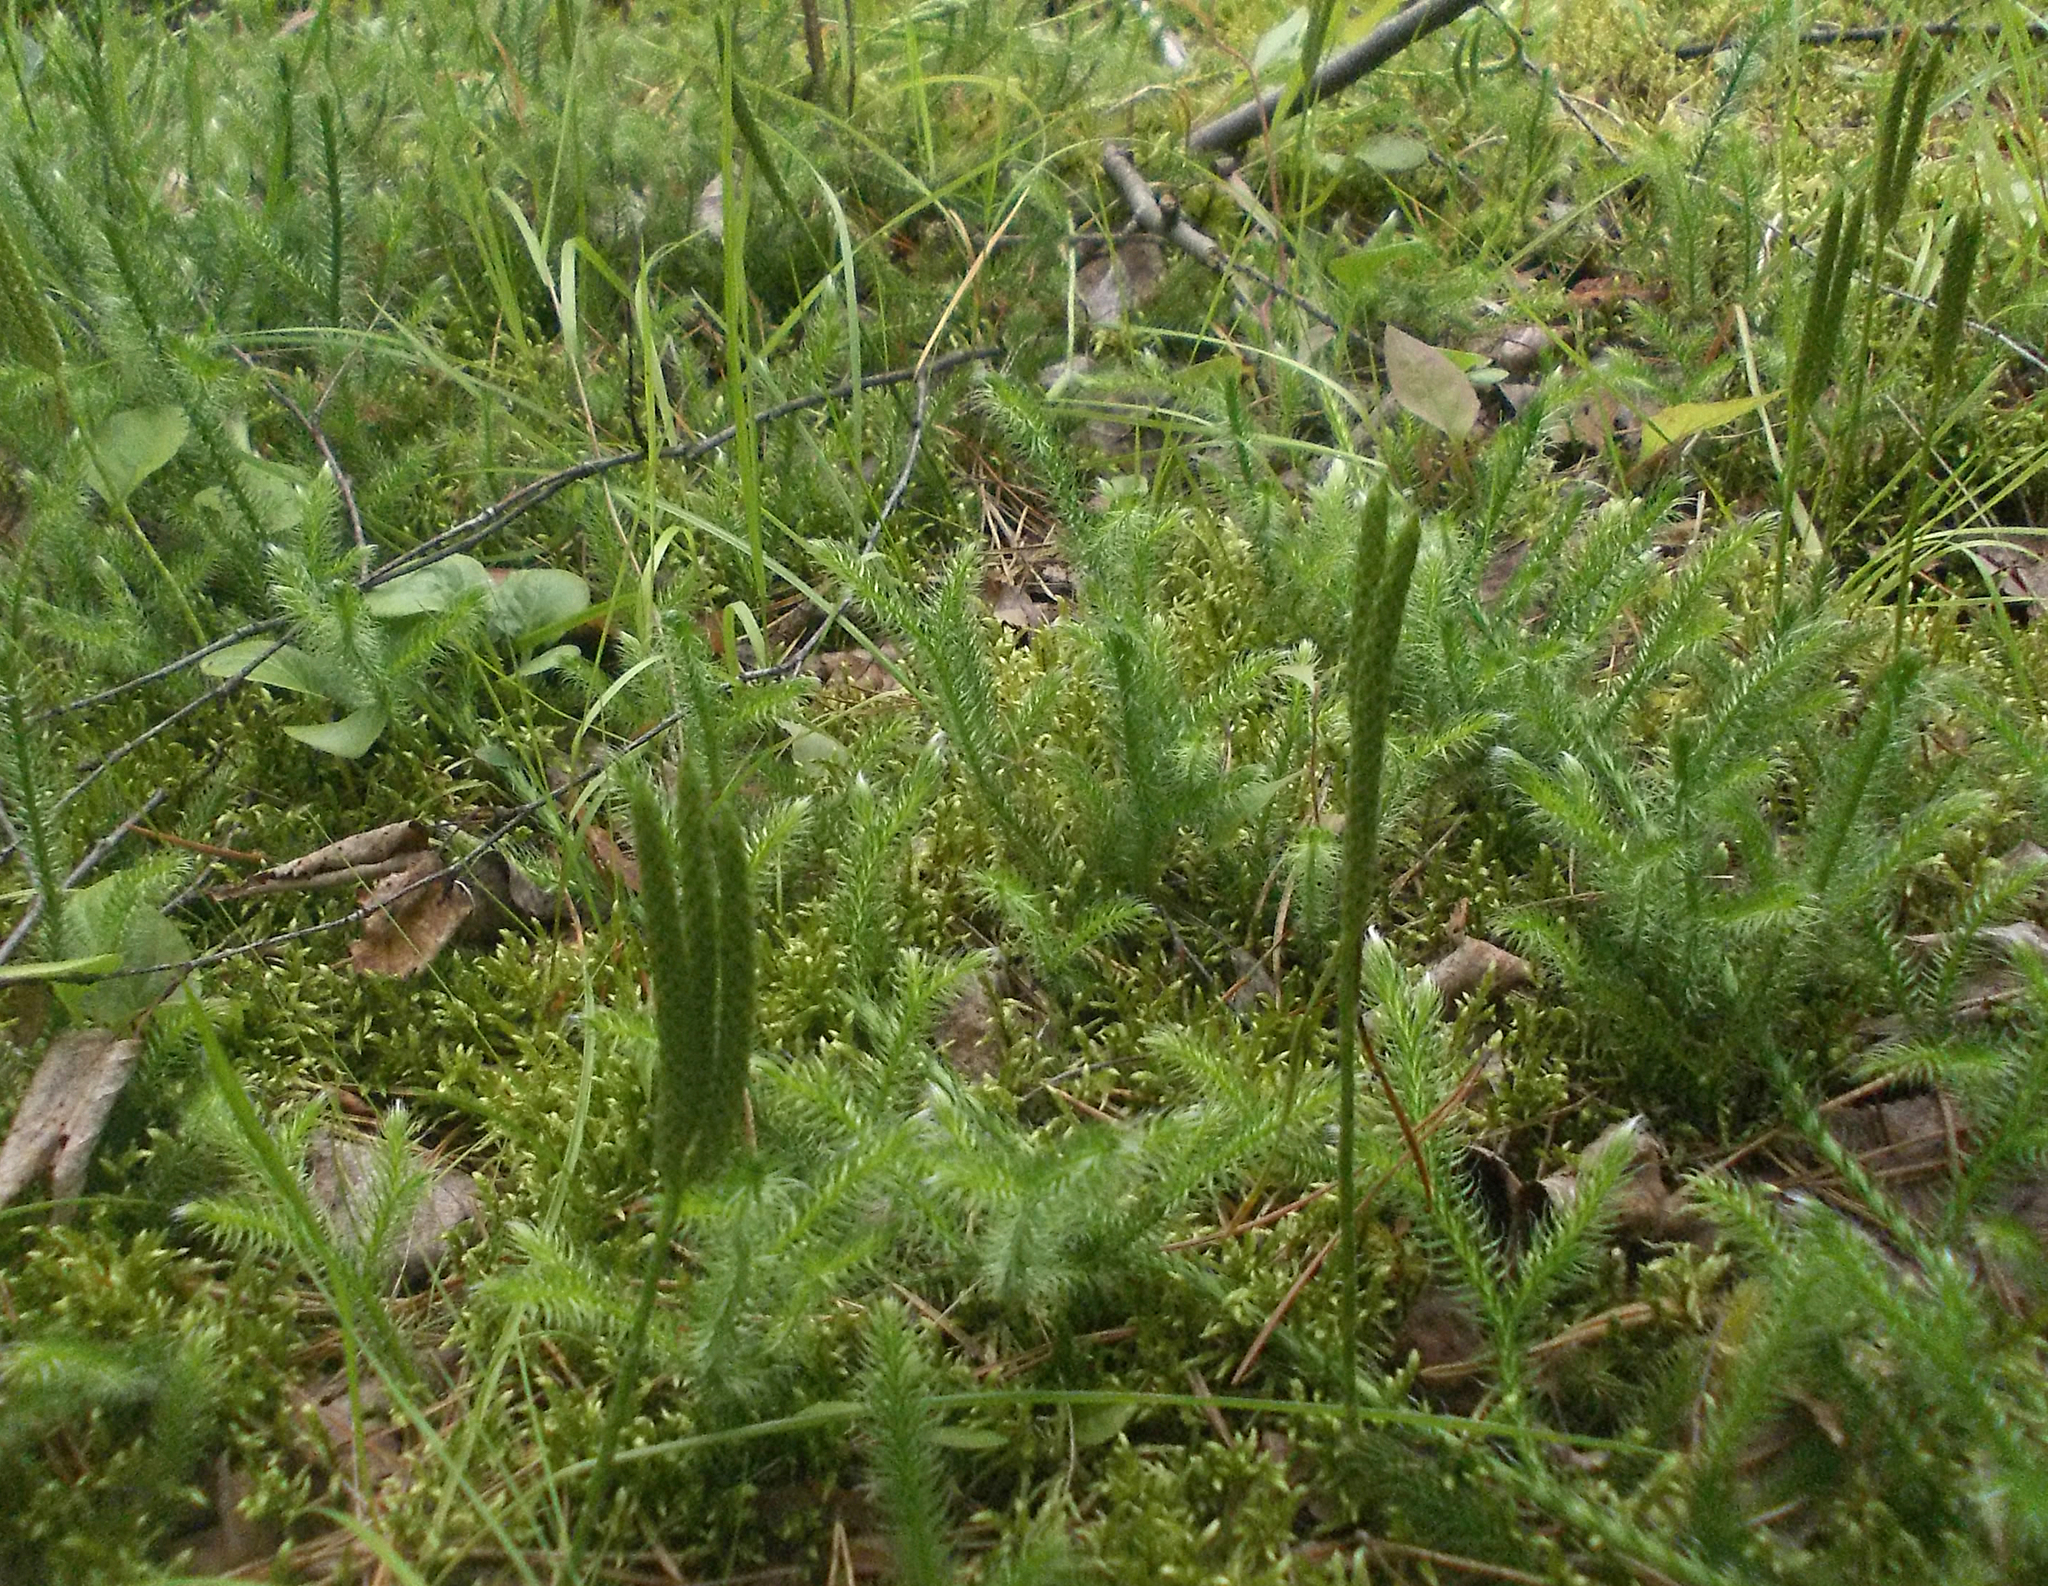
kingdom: Plantae
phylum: Tracheophyta
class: Lycopodiopsida
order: Lycopodiales
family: Lycopodiaceae
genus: Lycopodium
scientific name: Lycopodium clavatum
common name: Stag's-horn clubmoss
